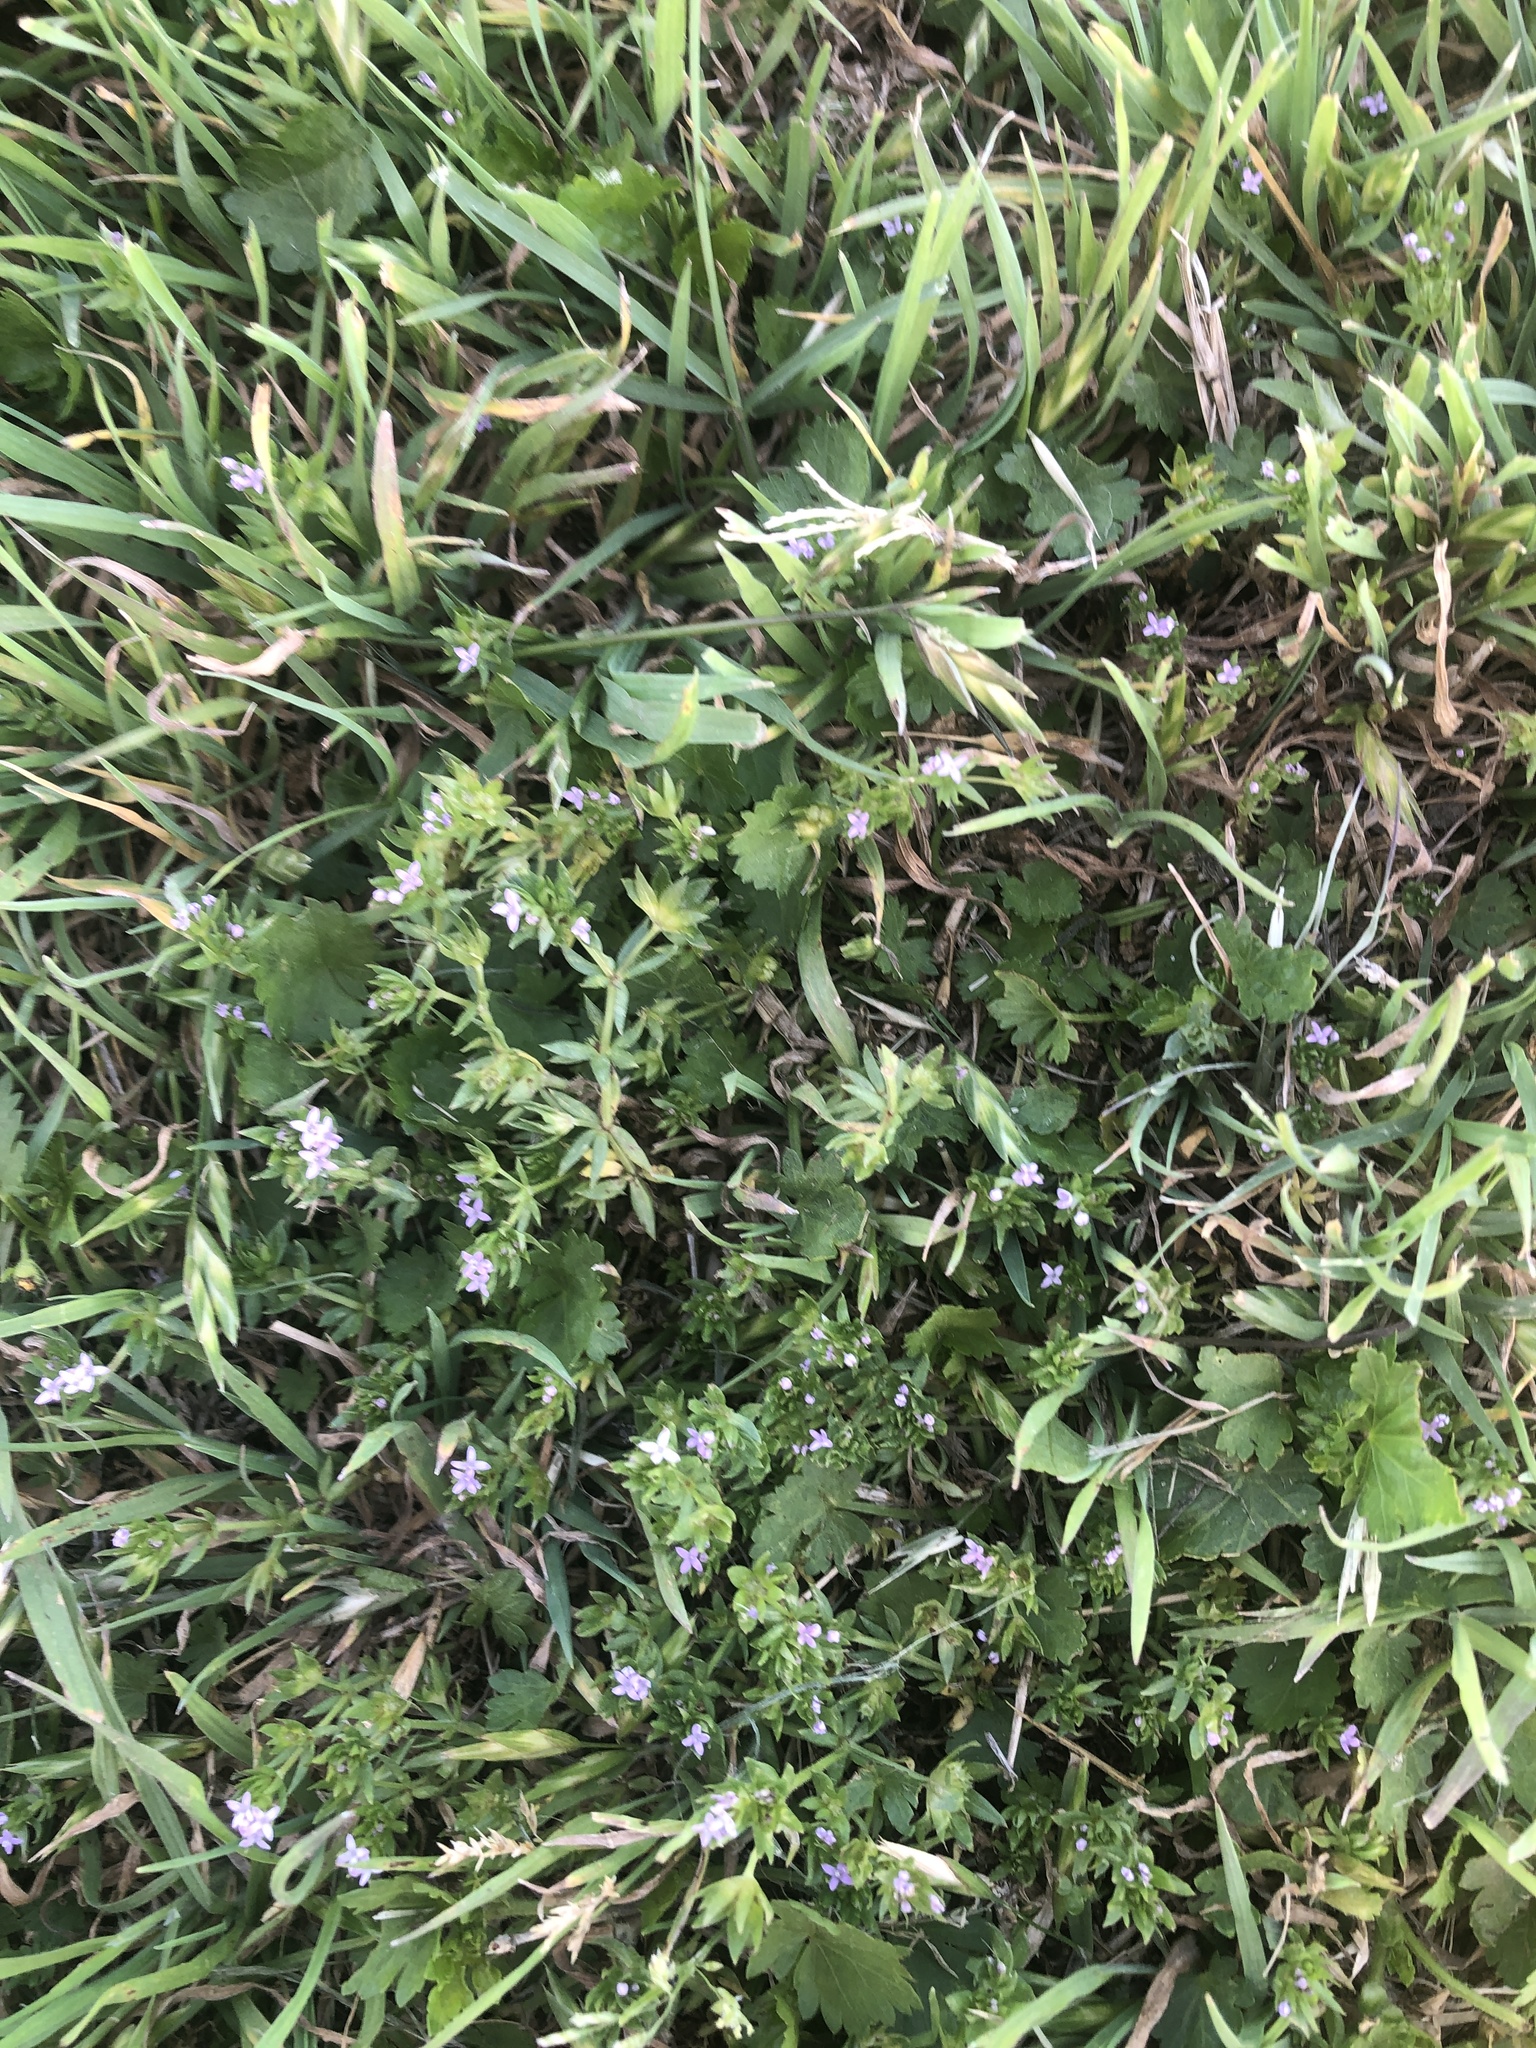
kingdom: Plantae
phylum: Tracheophyta
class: Magnoliopsida
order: Gentianales
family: Rubiaceae
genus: Sherardia
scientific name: Sherardia arvensis
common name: Field madder
